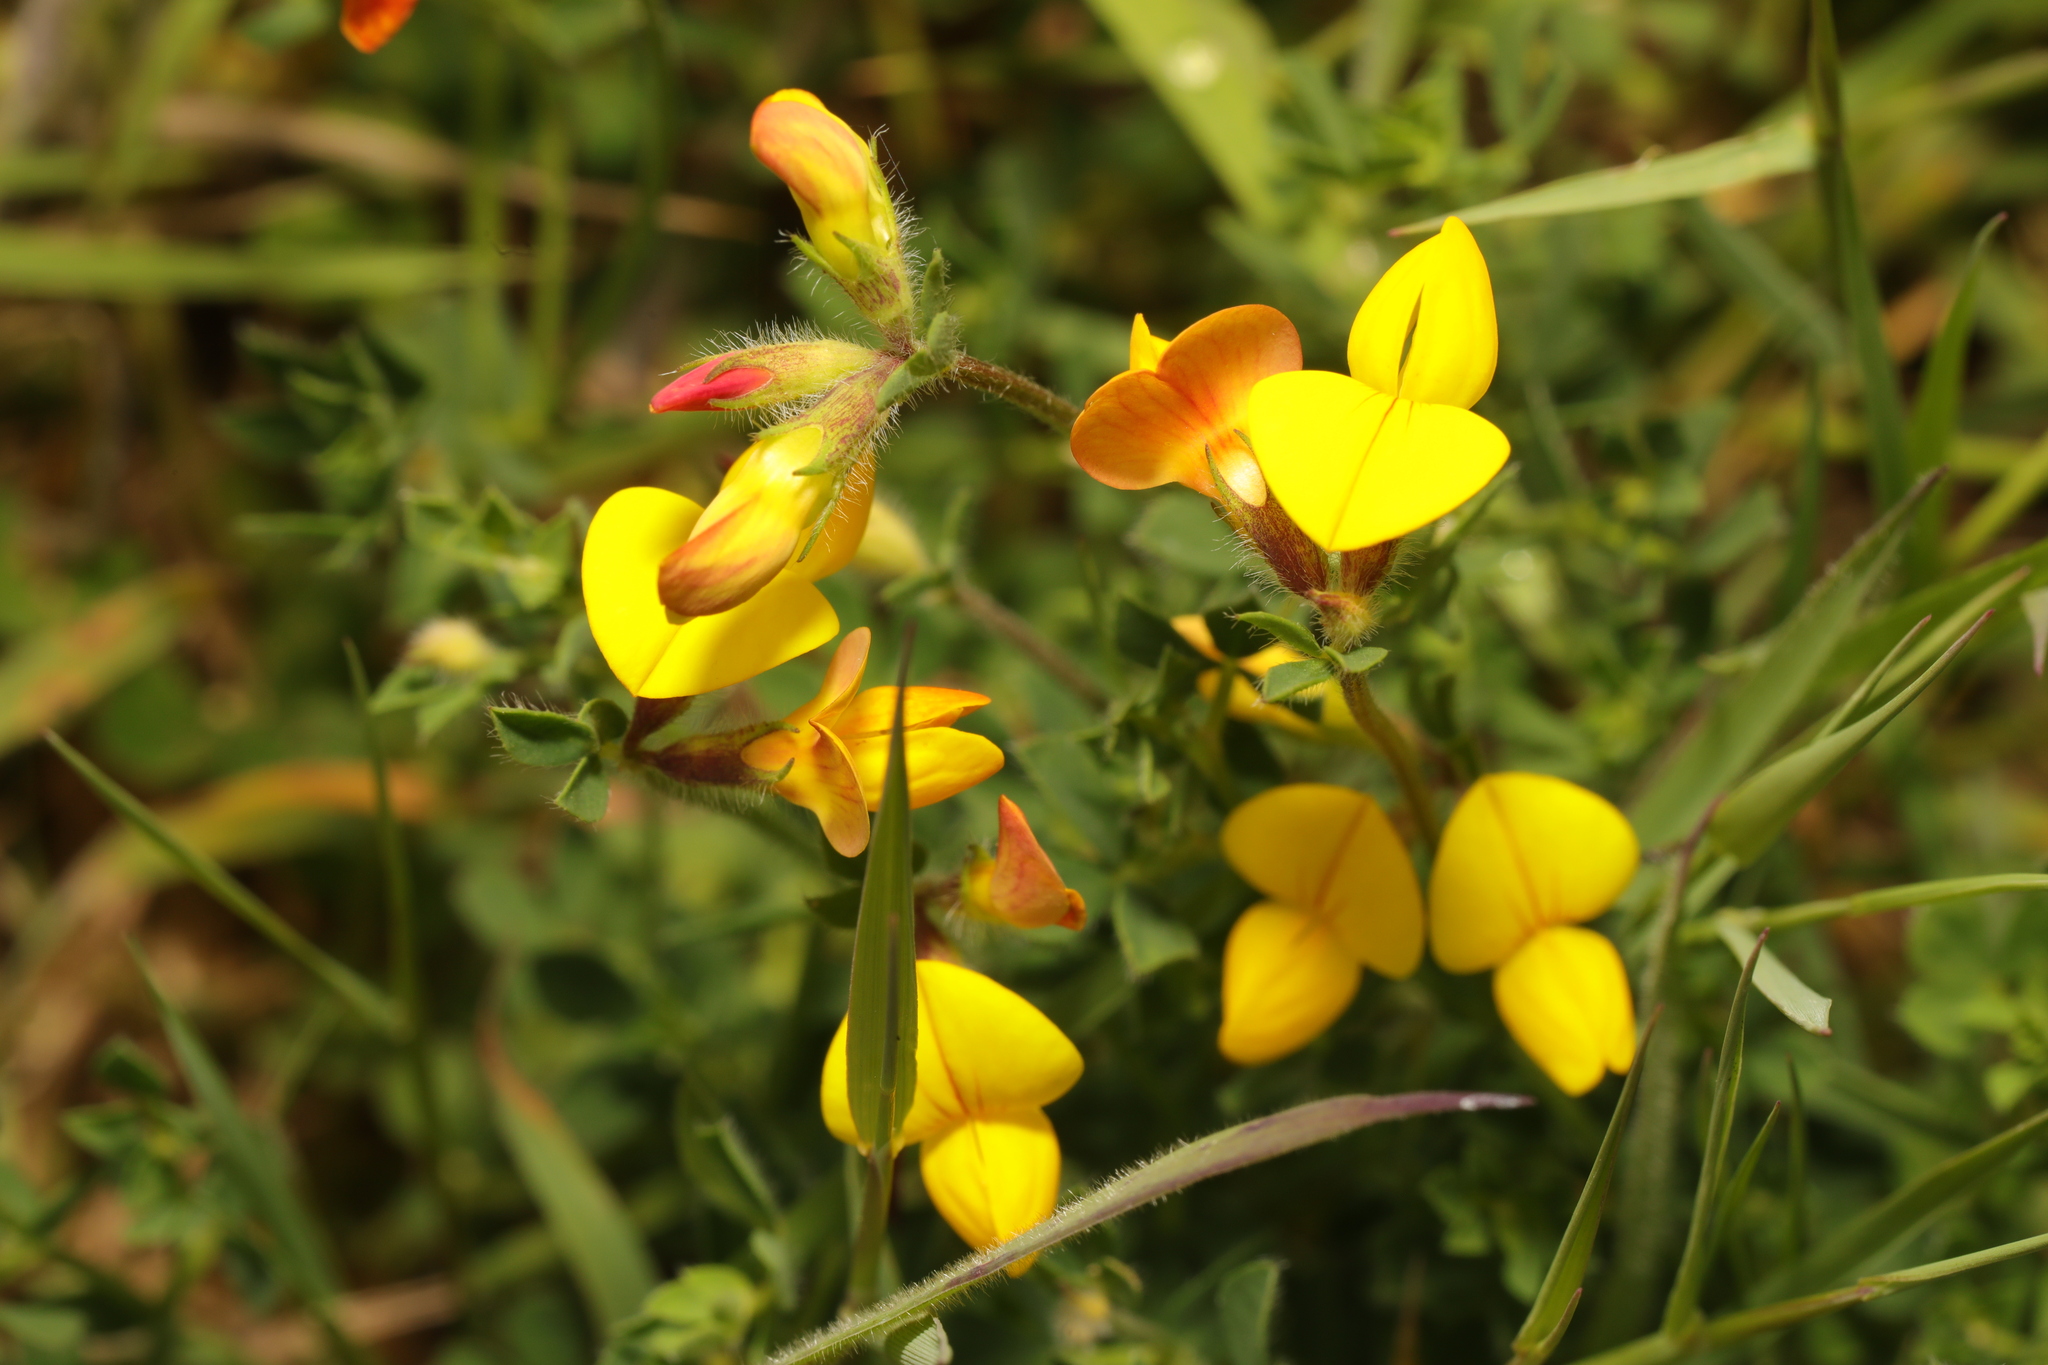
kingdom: Plantae
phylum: Tracheophyta
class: Magnoliopsida
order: Fabales
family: Fabaceae
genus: Lotus
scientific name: Lotus corniculatus
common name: Common bird's-foot-trefoil
